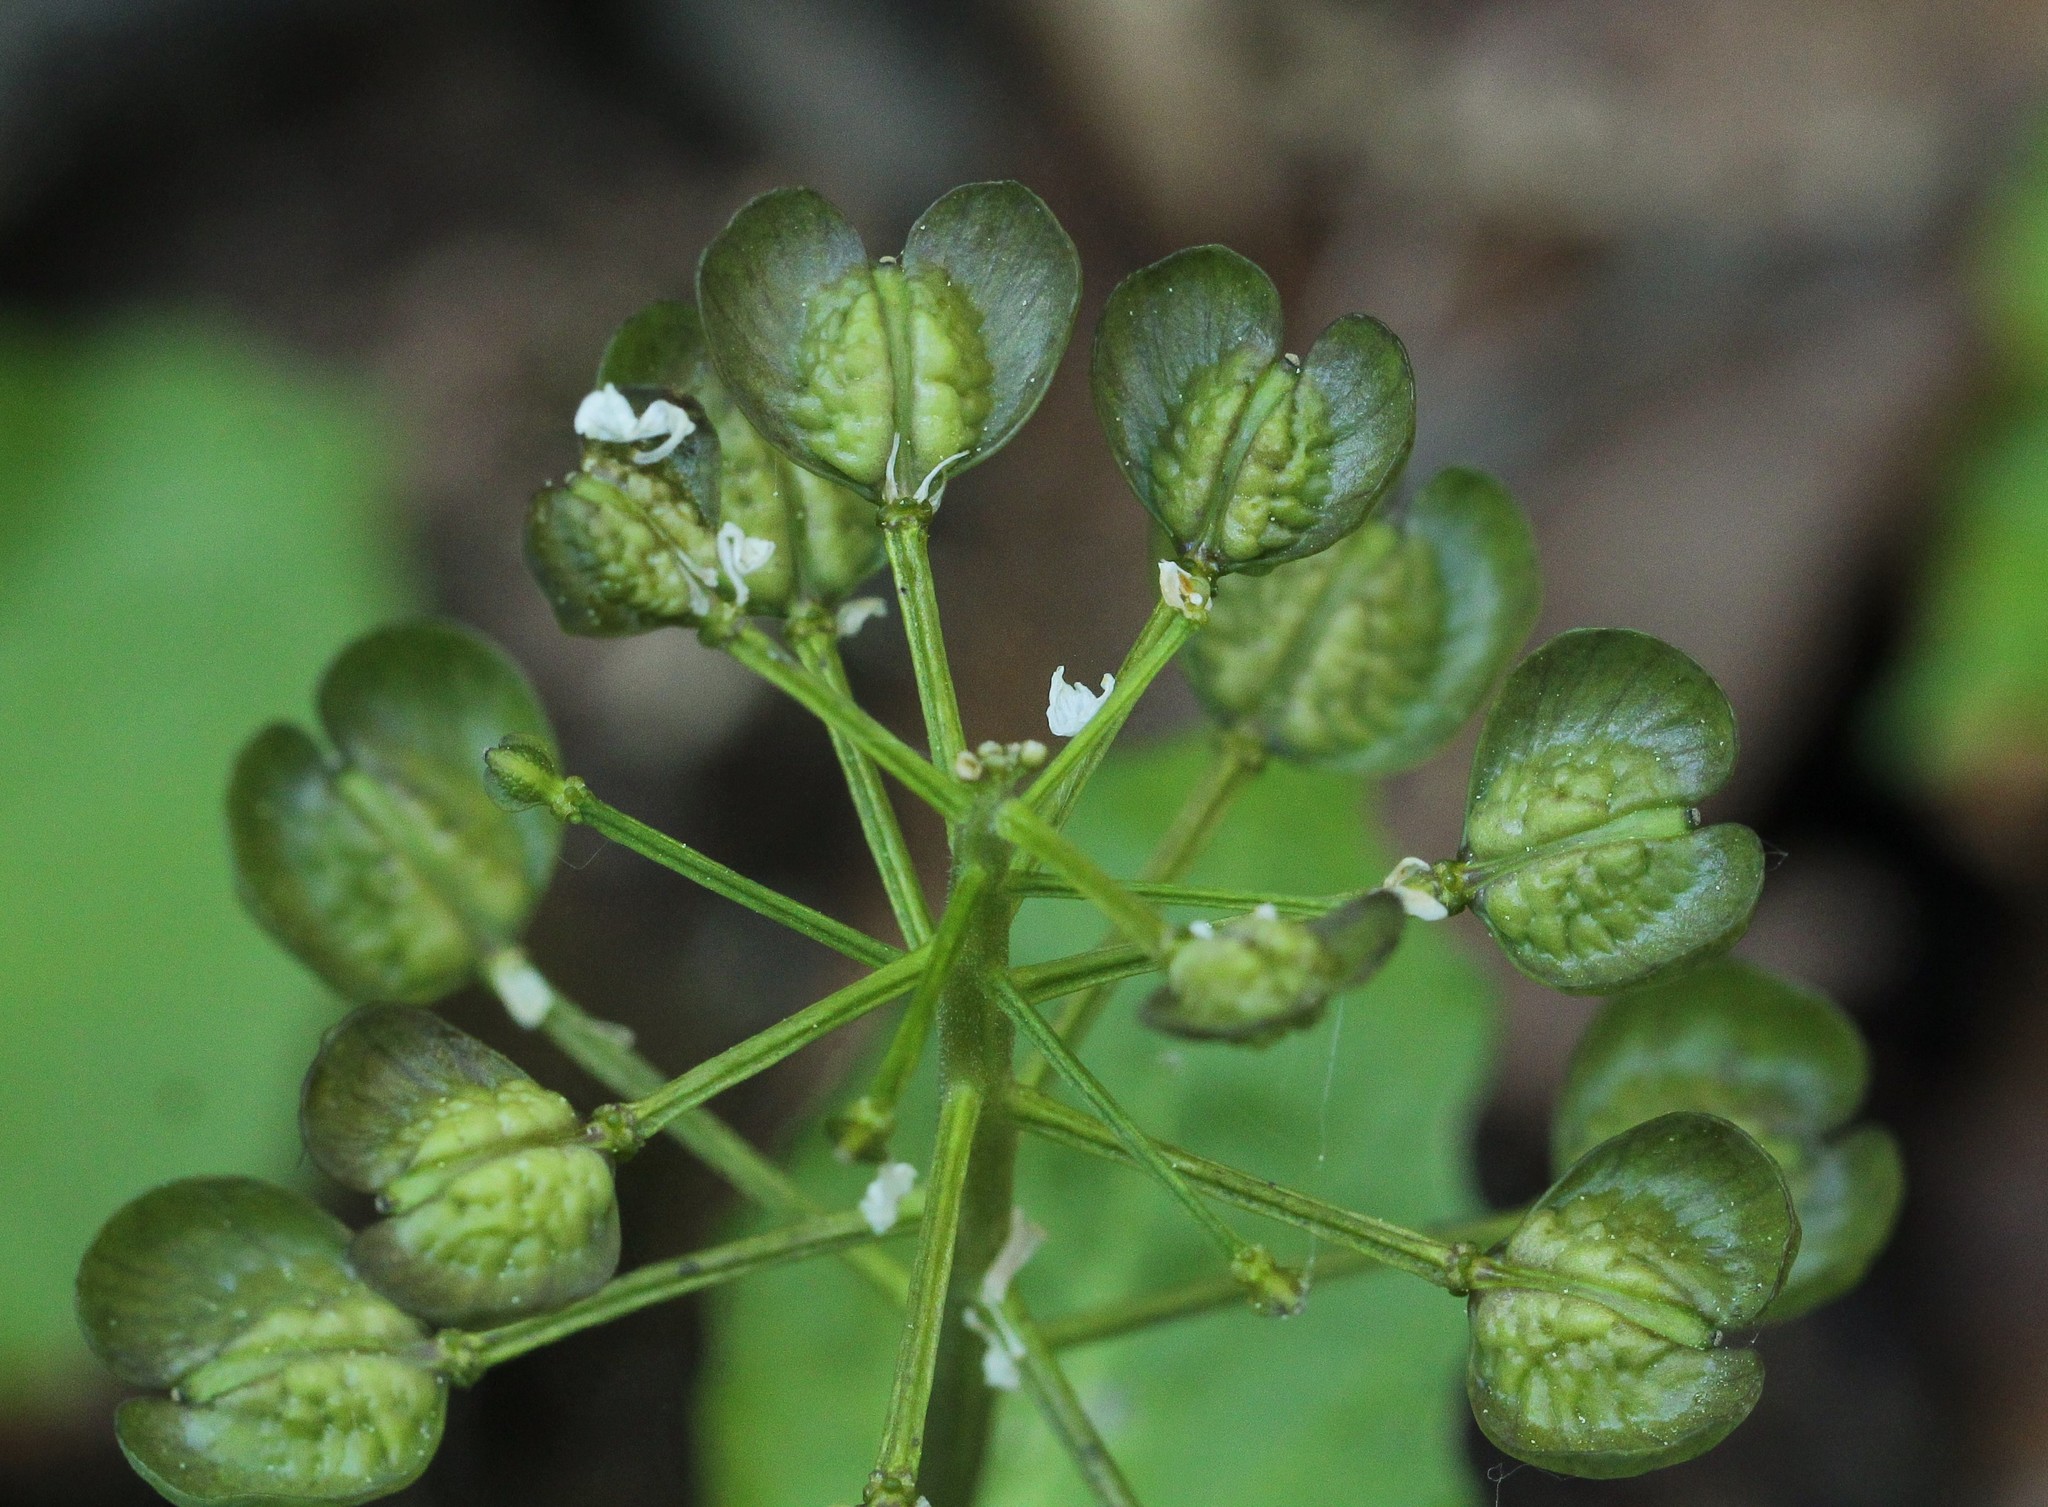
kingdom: Plantae
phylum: Tracheophyta
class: Magnoliopsida
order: Brassicales
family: Brassicaceae
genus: Pachyphragma
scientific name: Pachyphragma macrophyllum
